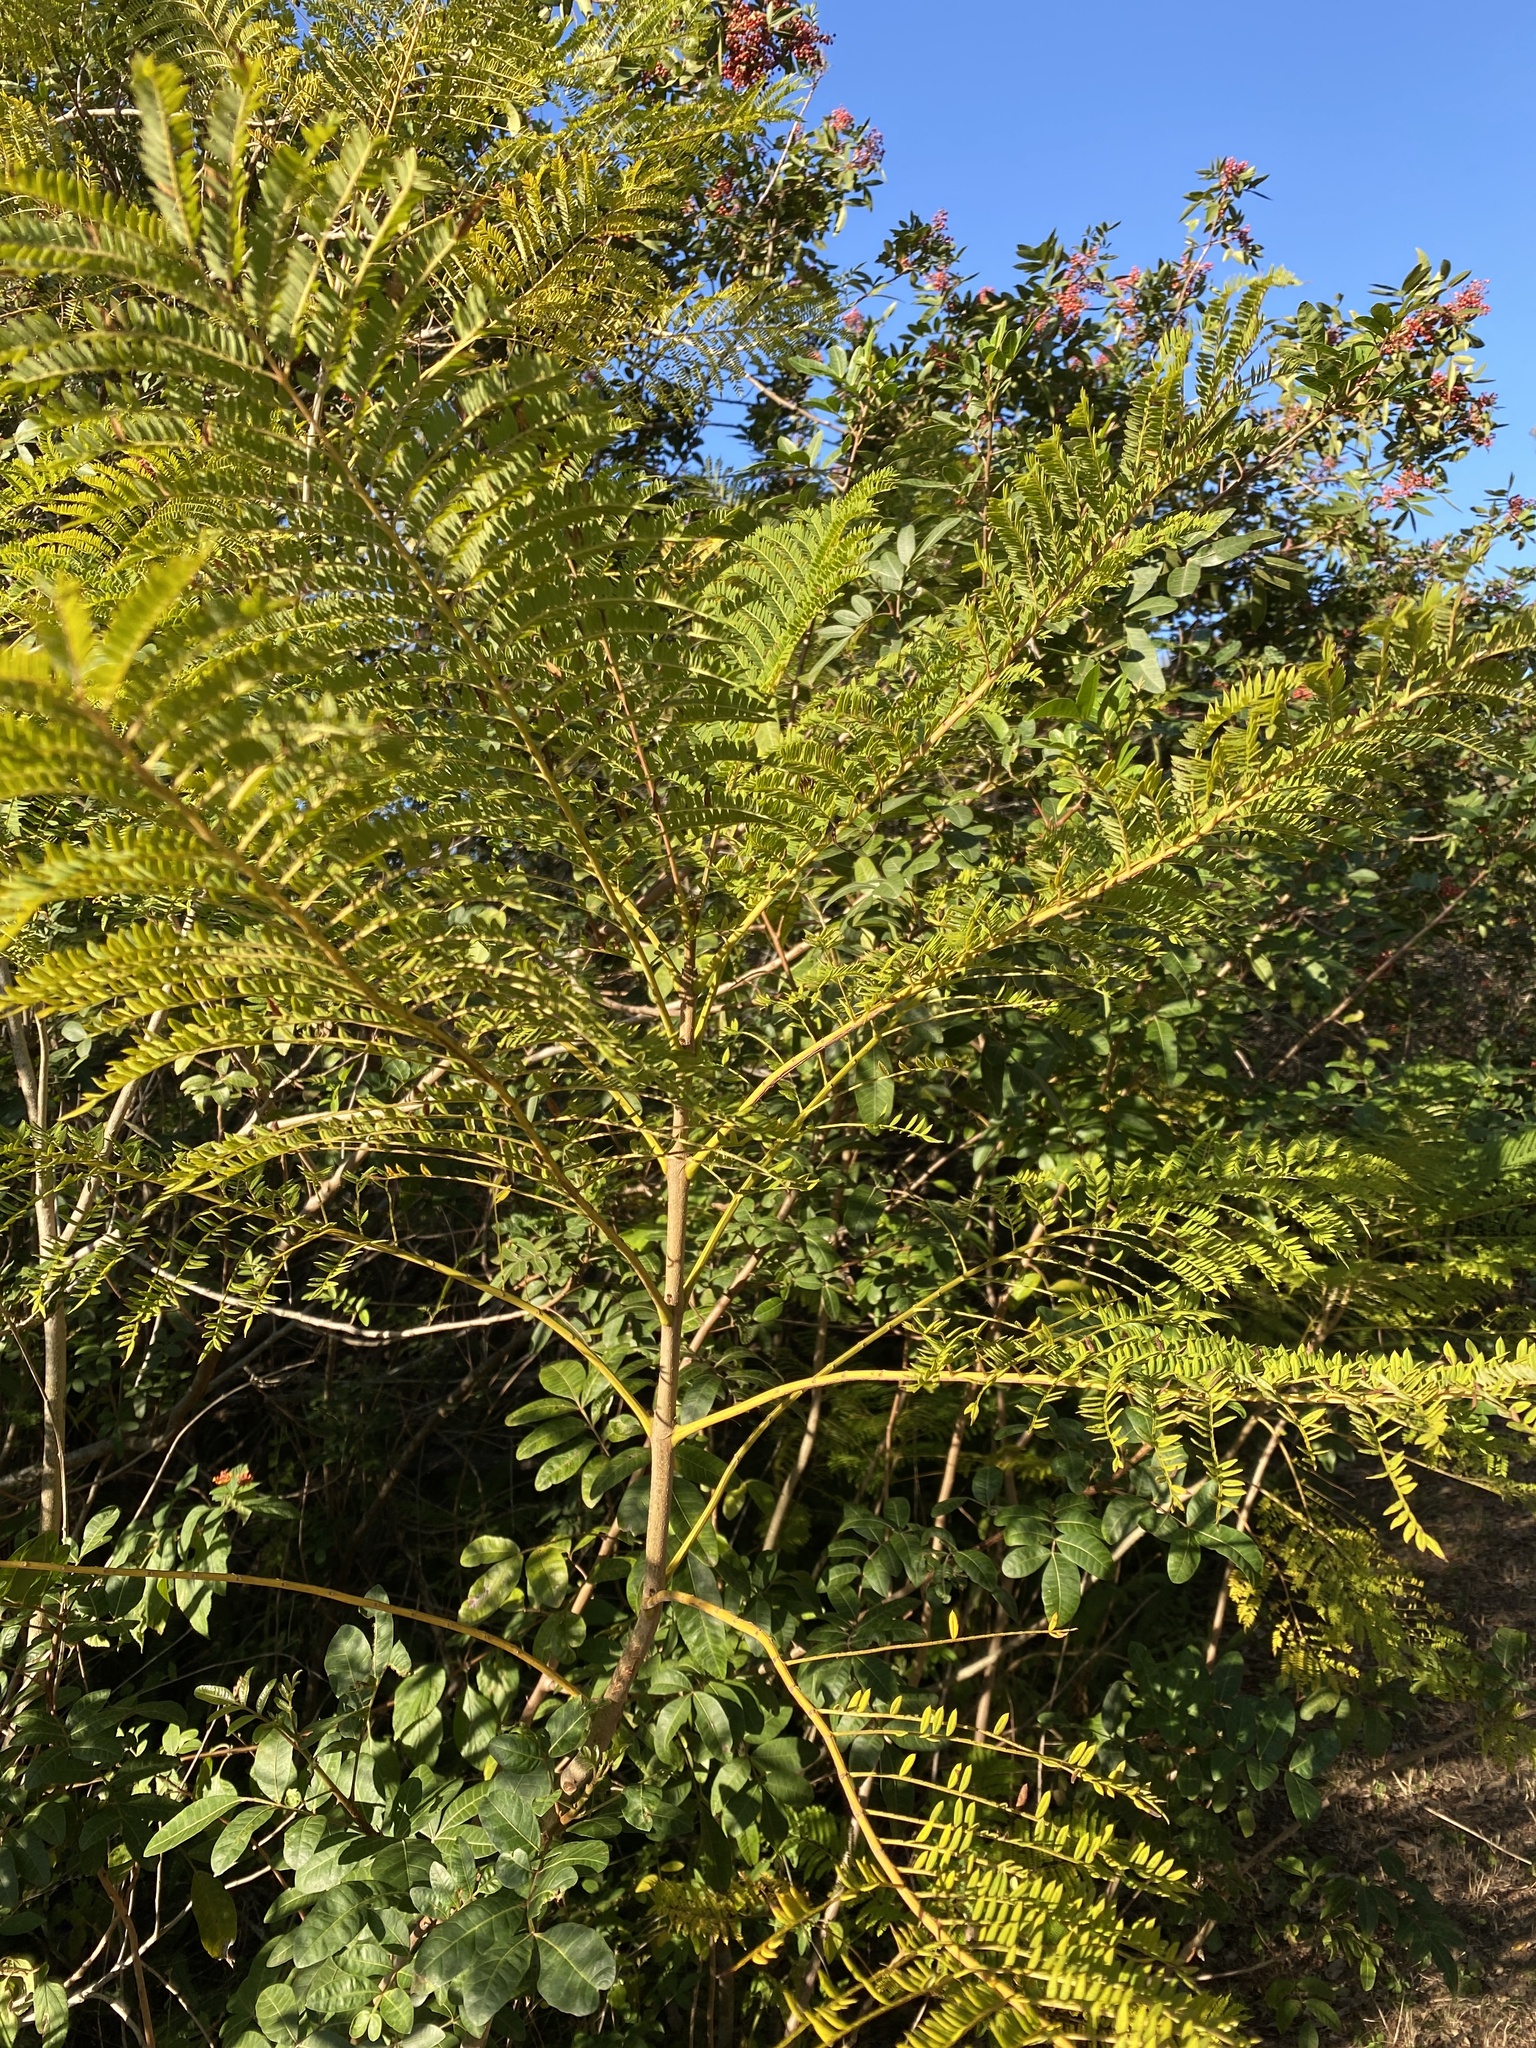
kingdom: Plantae
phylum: Tracheophyta
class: Magnoliopsida
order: Lamiales
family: Bignoniaceae
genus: Jacaranda
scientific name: Jacaranda mimosifolia
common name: Black poui
